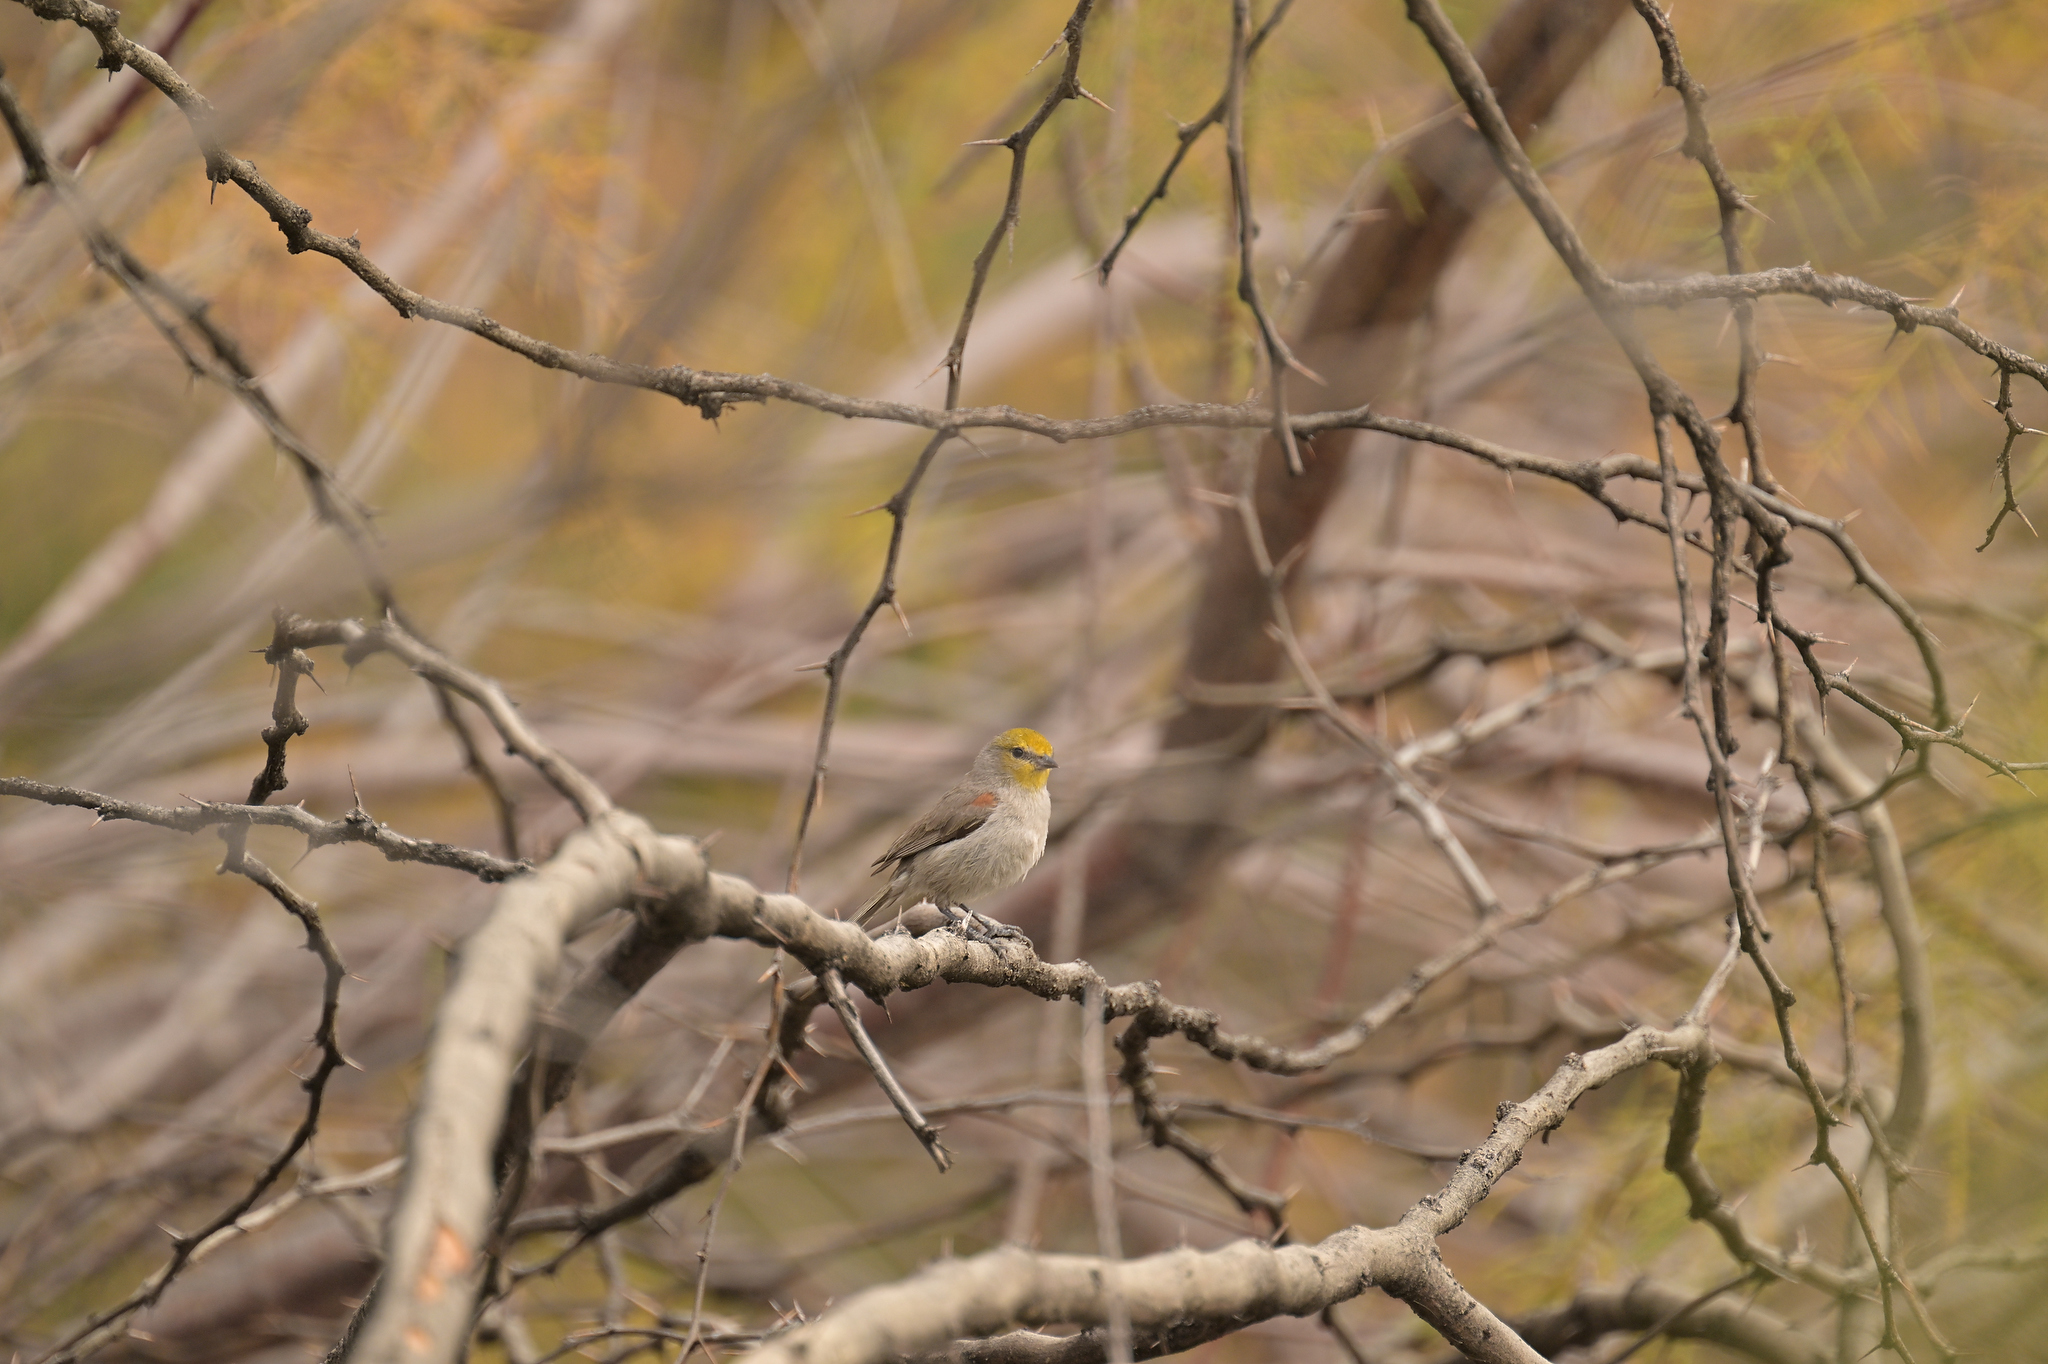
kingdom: Animalia
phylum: Chordata
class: Aves
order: Passeriformes
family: Remizidae
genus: Auriparus
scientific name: Auriparus flaviceps
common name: Verdin
